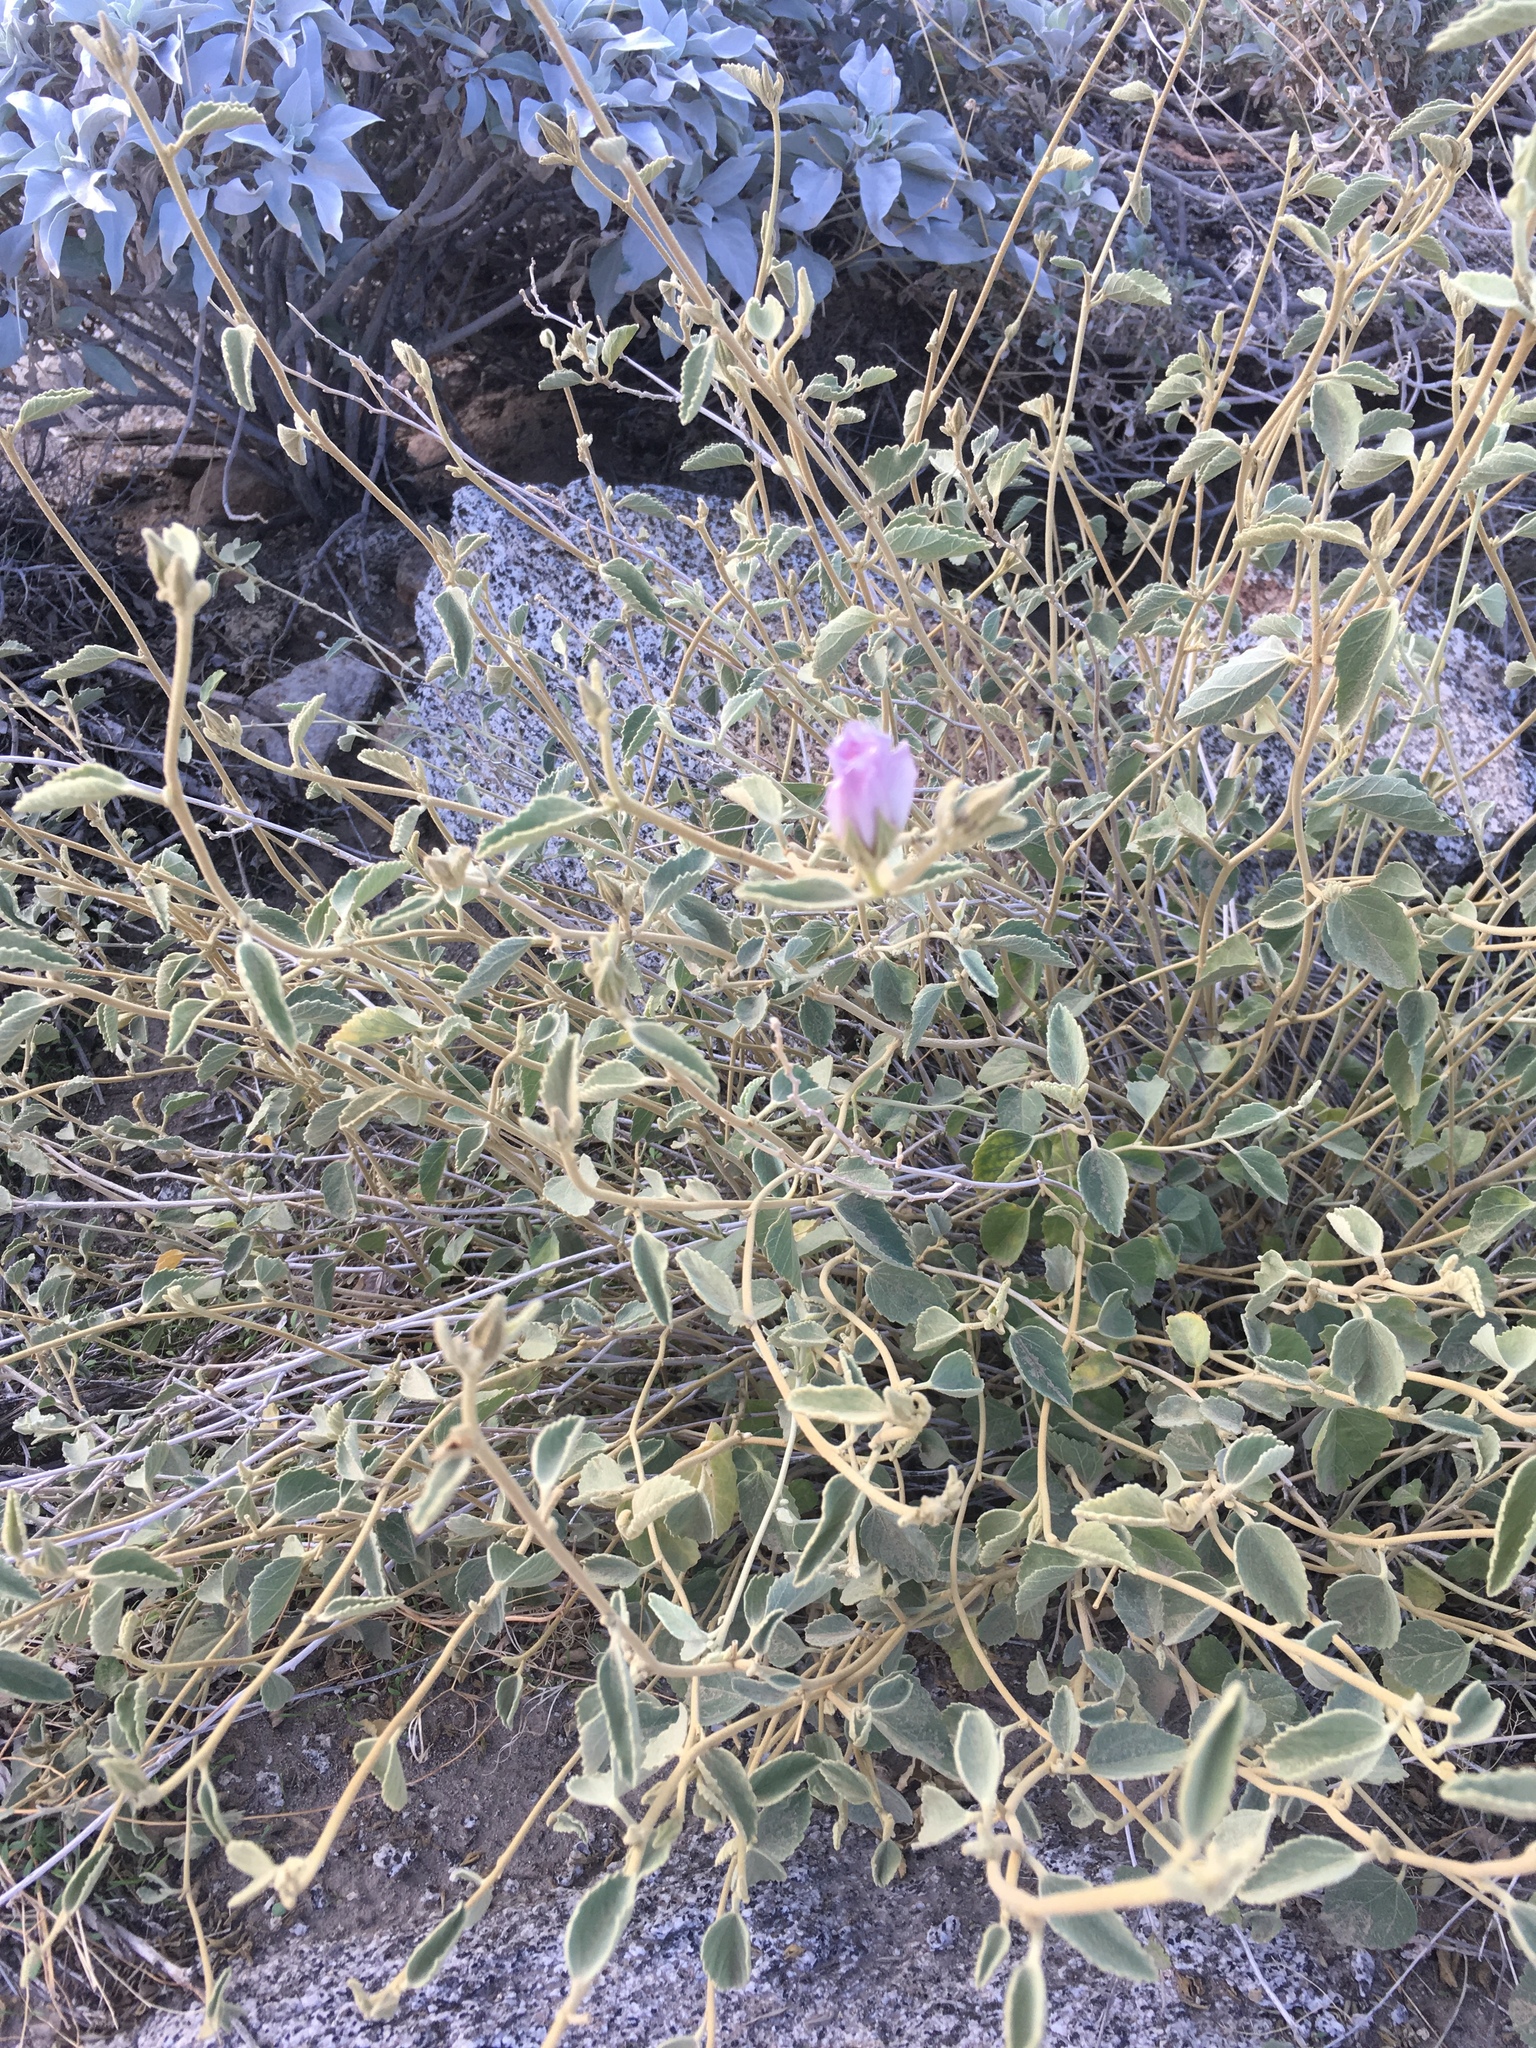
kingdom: Plantae
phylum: Tracheophyta
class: Magnoliopsida
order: Malvales
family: Malvaceae
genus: Hibiscus
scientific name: Hibiscus denudatus
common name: Paleface
